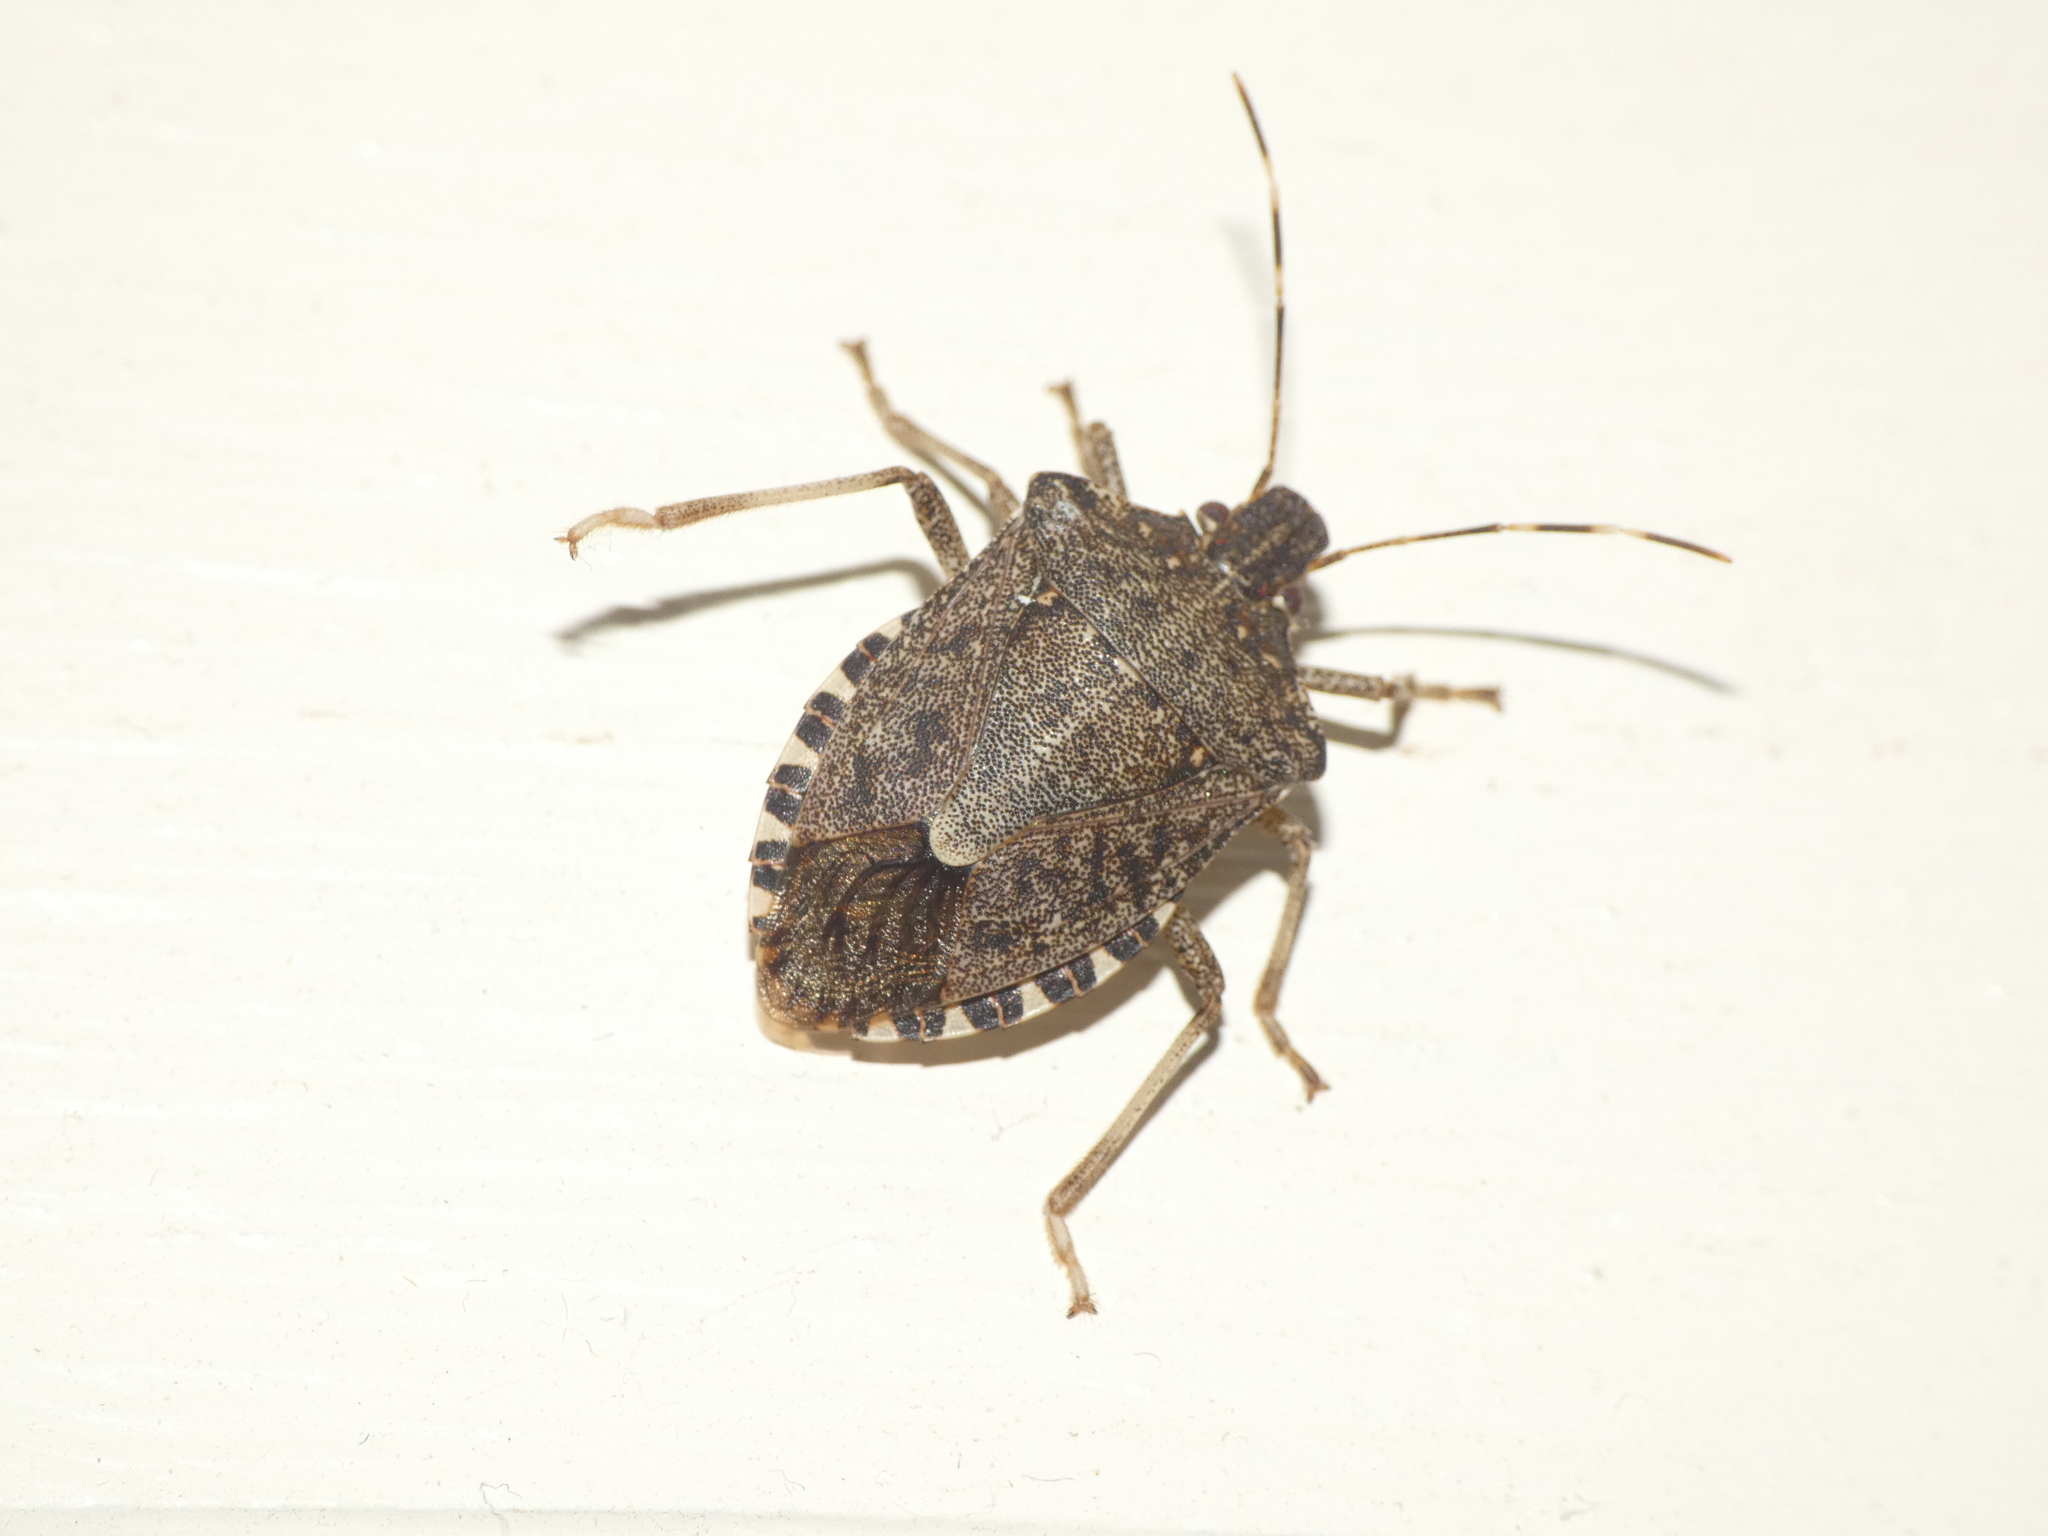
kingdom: Animalia
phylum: Arthropoda
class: Insecta
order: Hemiptera
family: Pentatomidae
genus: Halyomorpha
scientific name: Halyomorpha halys
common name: Brown marmorated stink bug
